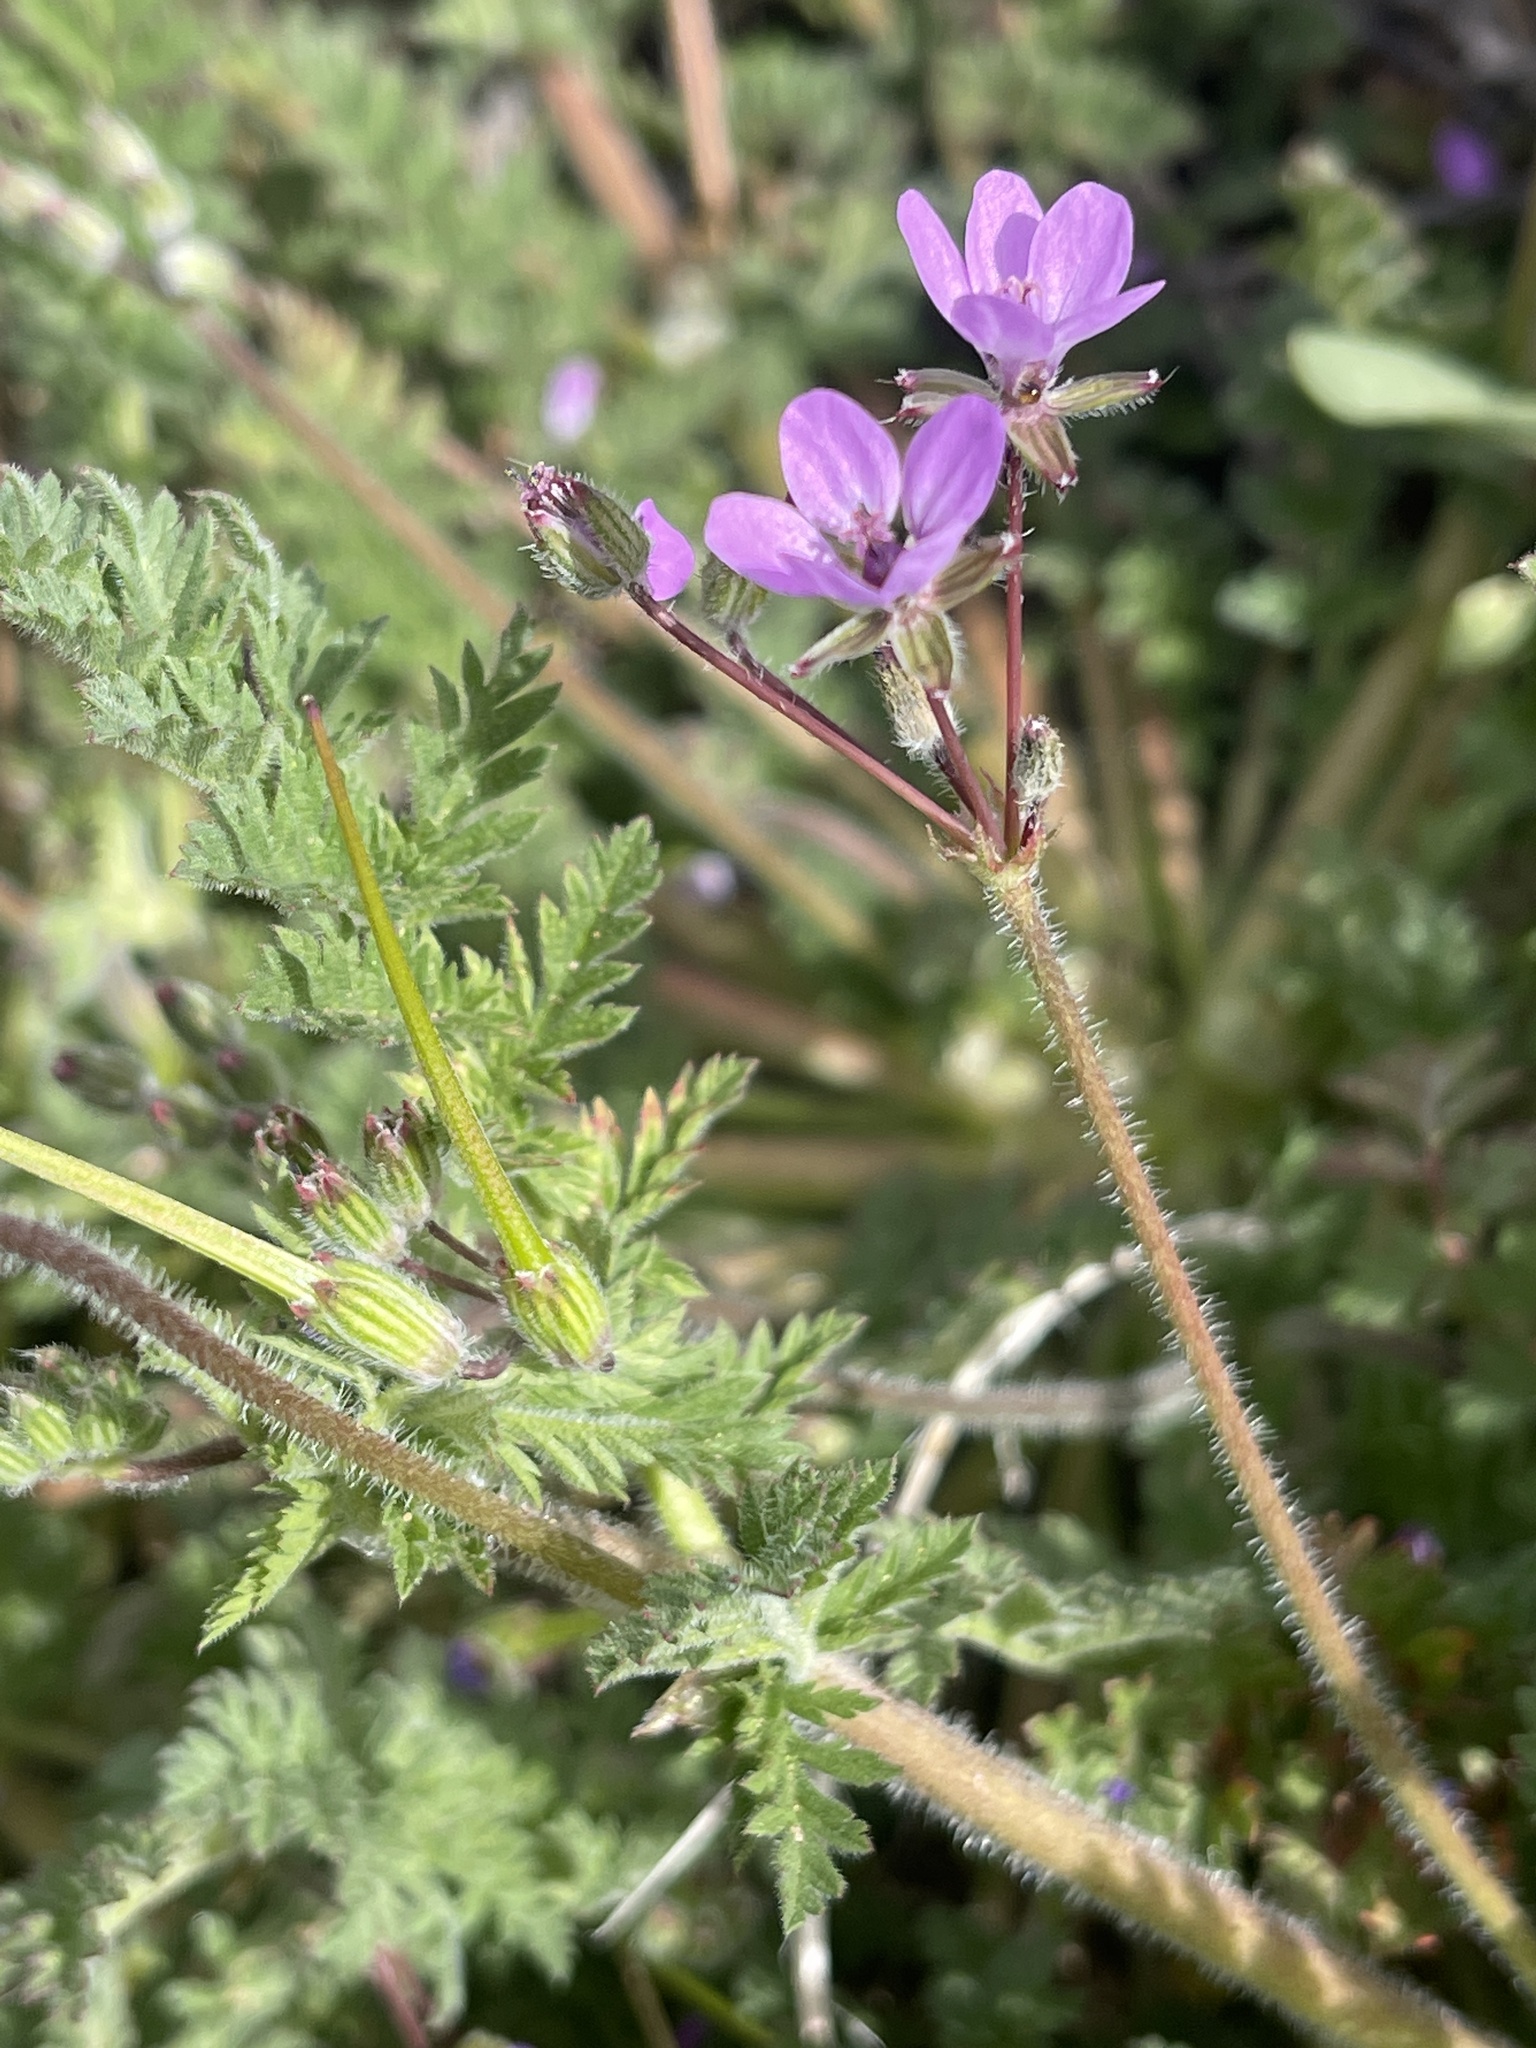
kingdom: Plantae
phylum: Tracheophyta
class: Magnoliopsida
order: Geraniales
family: Geraniaceae
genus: Erodium
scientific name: Erodium cicutarium
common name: Common stork's-bill
